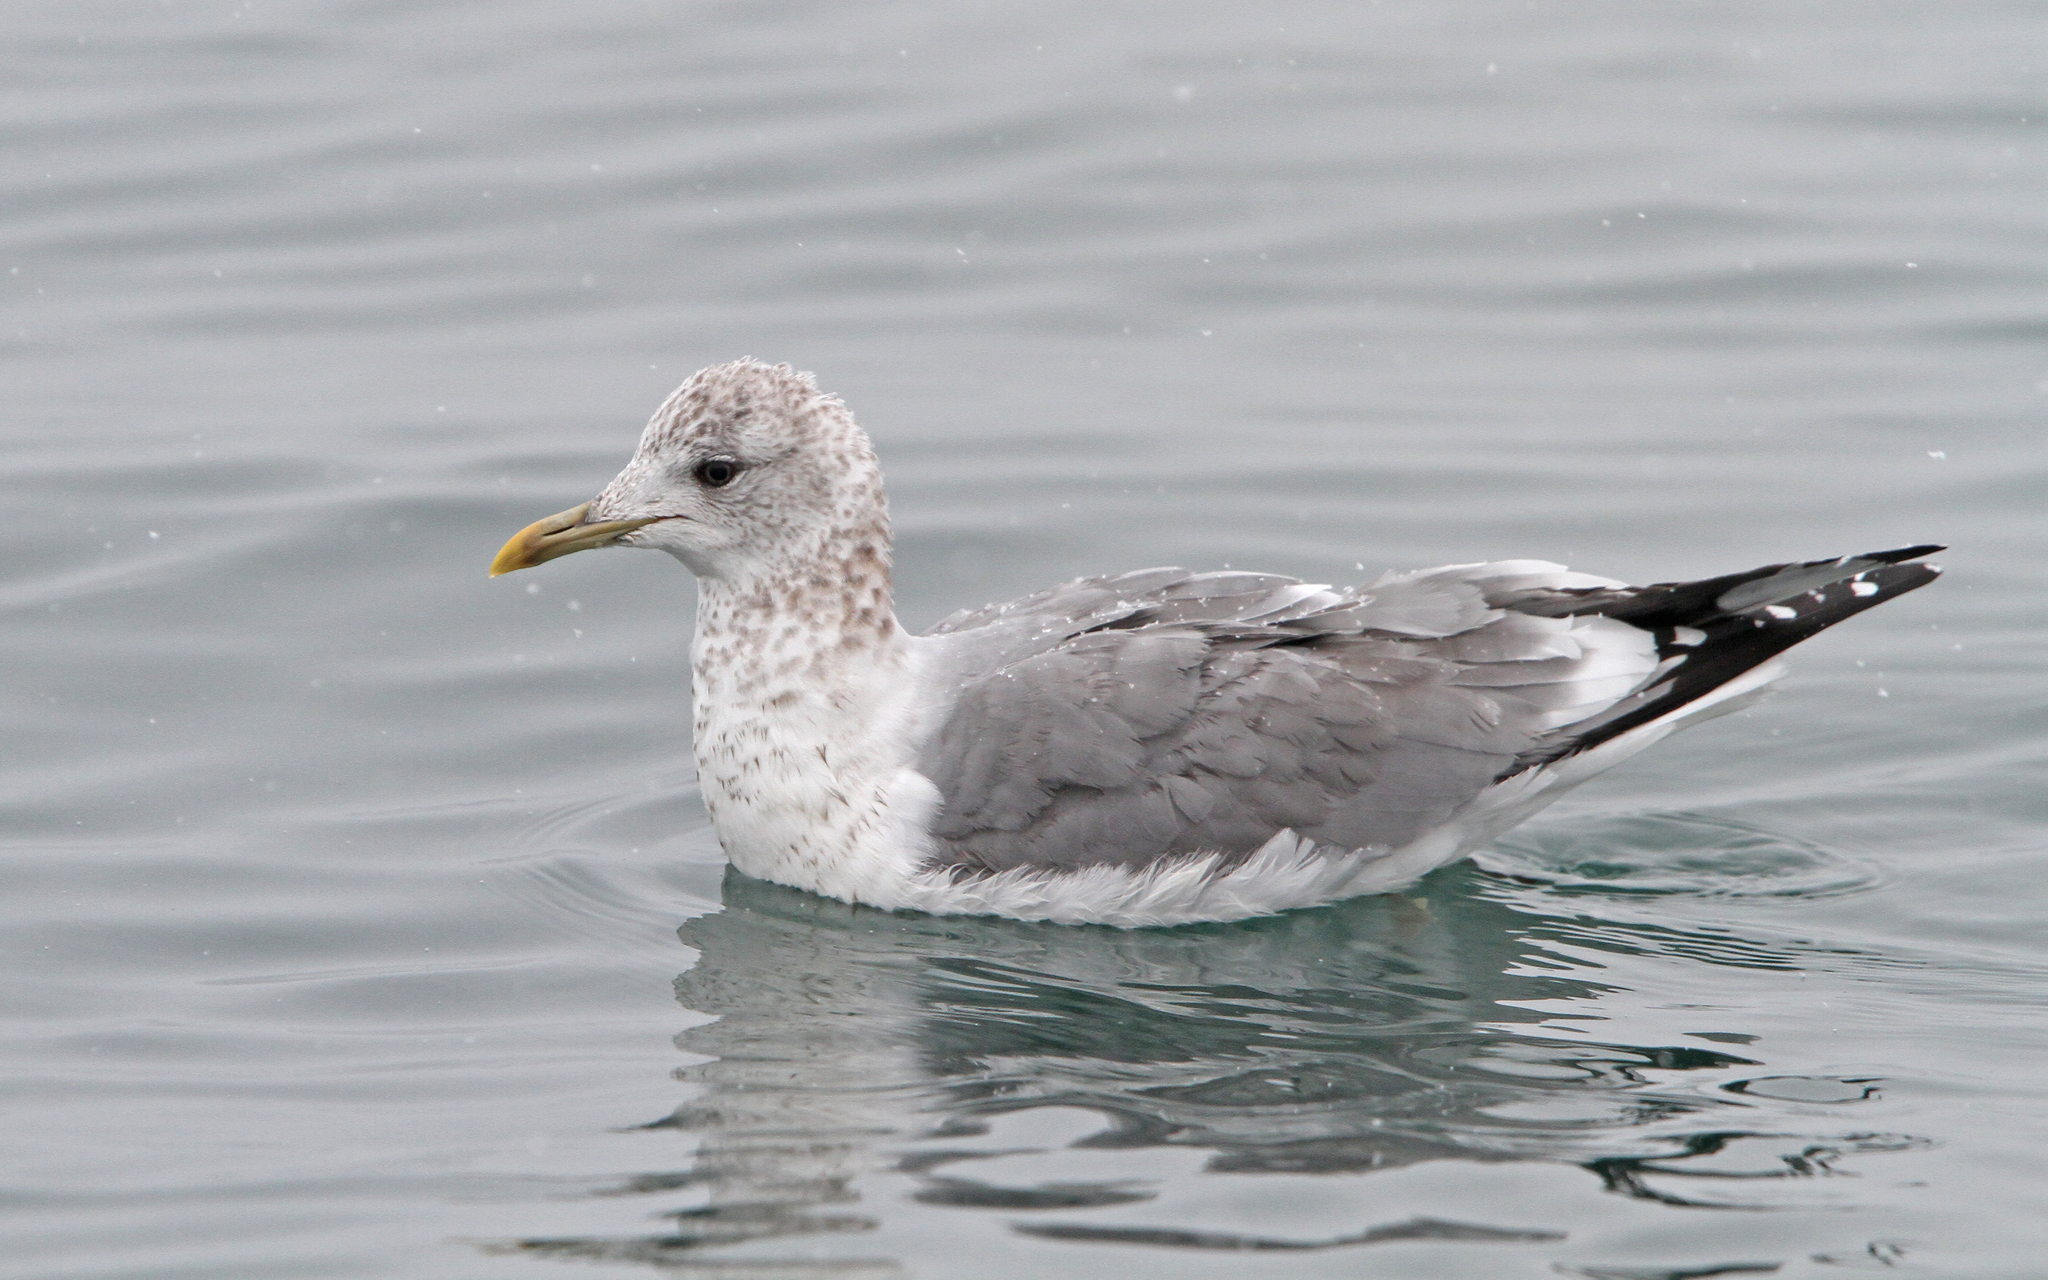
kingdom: Animalia
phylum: Chordata
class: Aves
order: Charadriiformes
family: Laridae
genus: Larus
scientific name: Larus canus
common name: Mew gull
